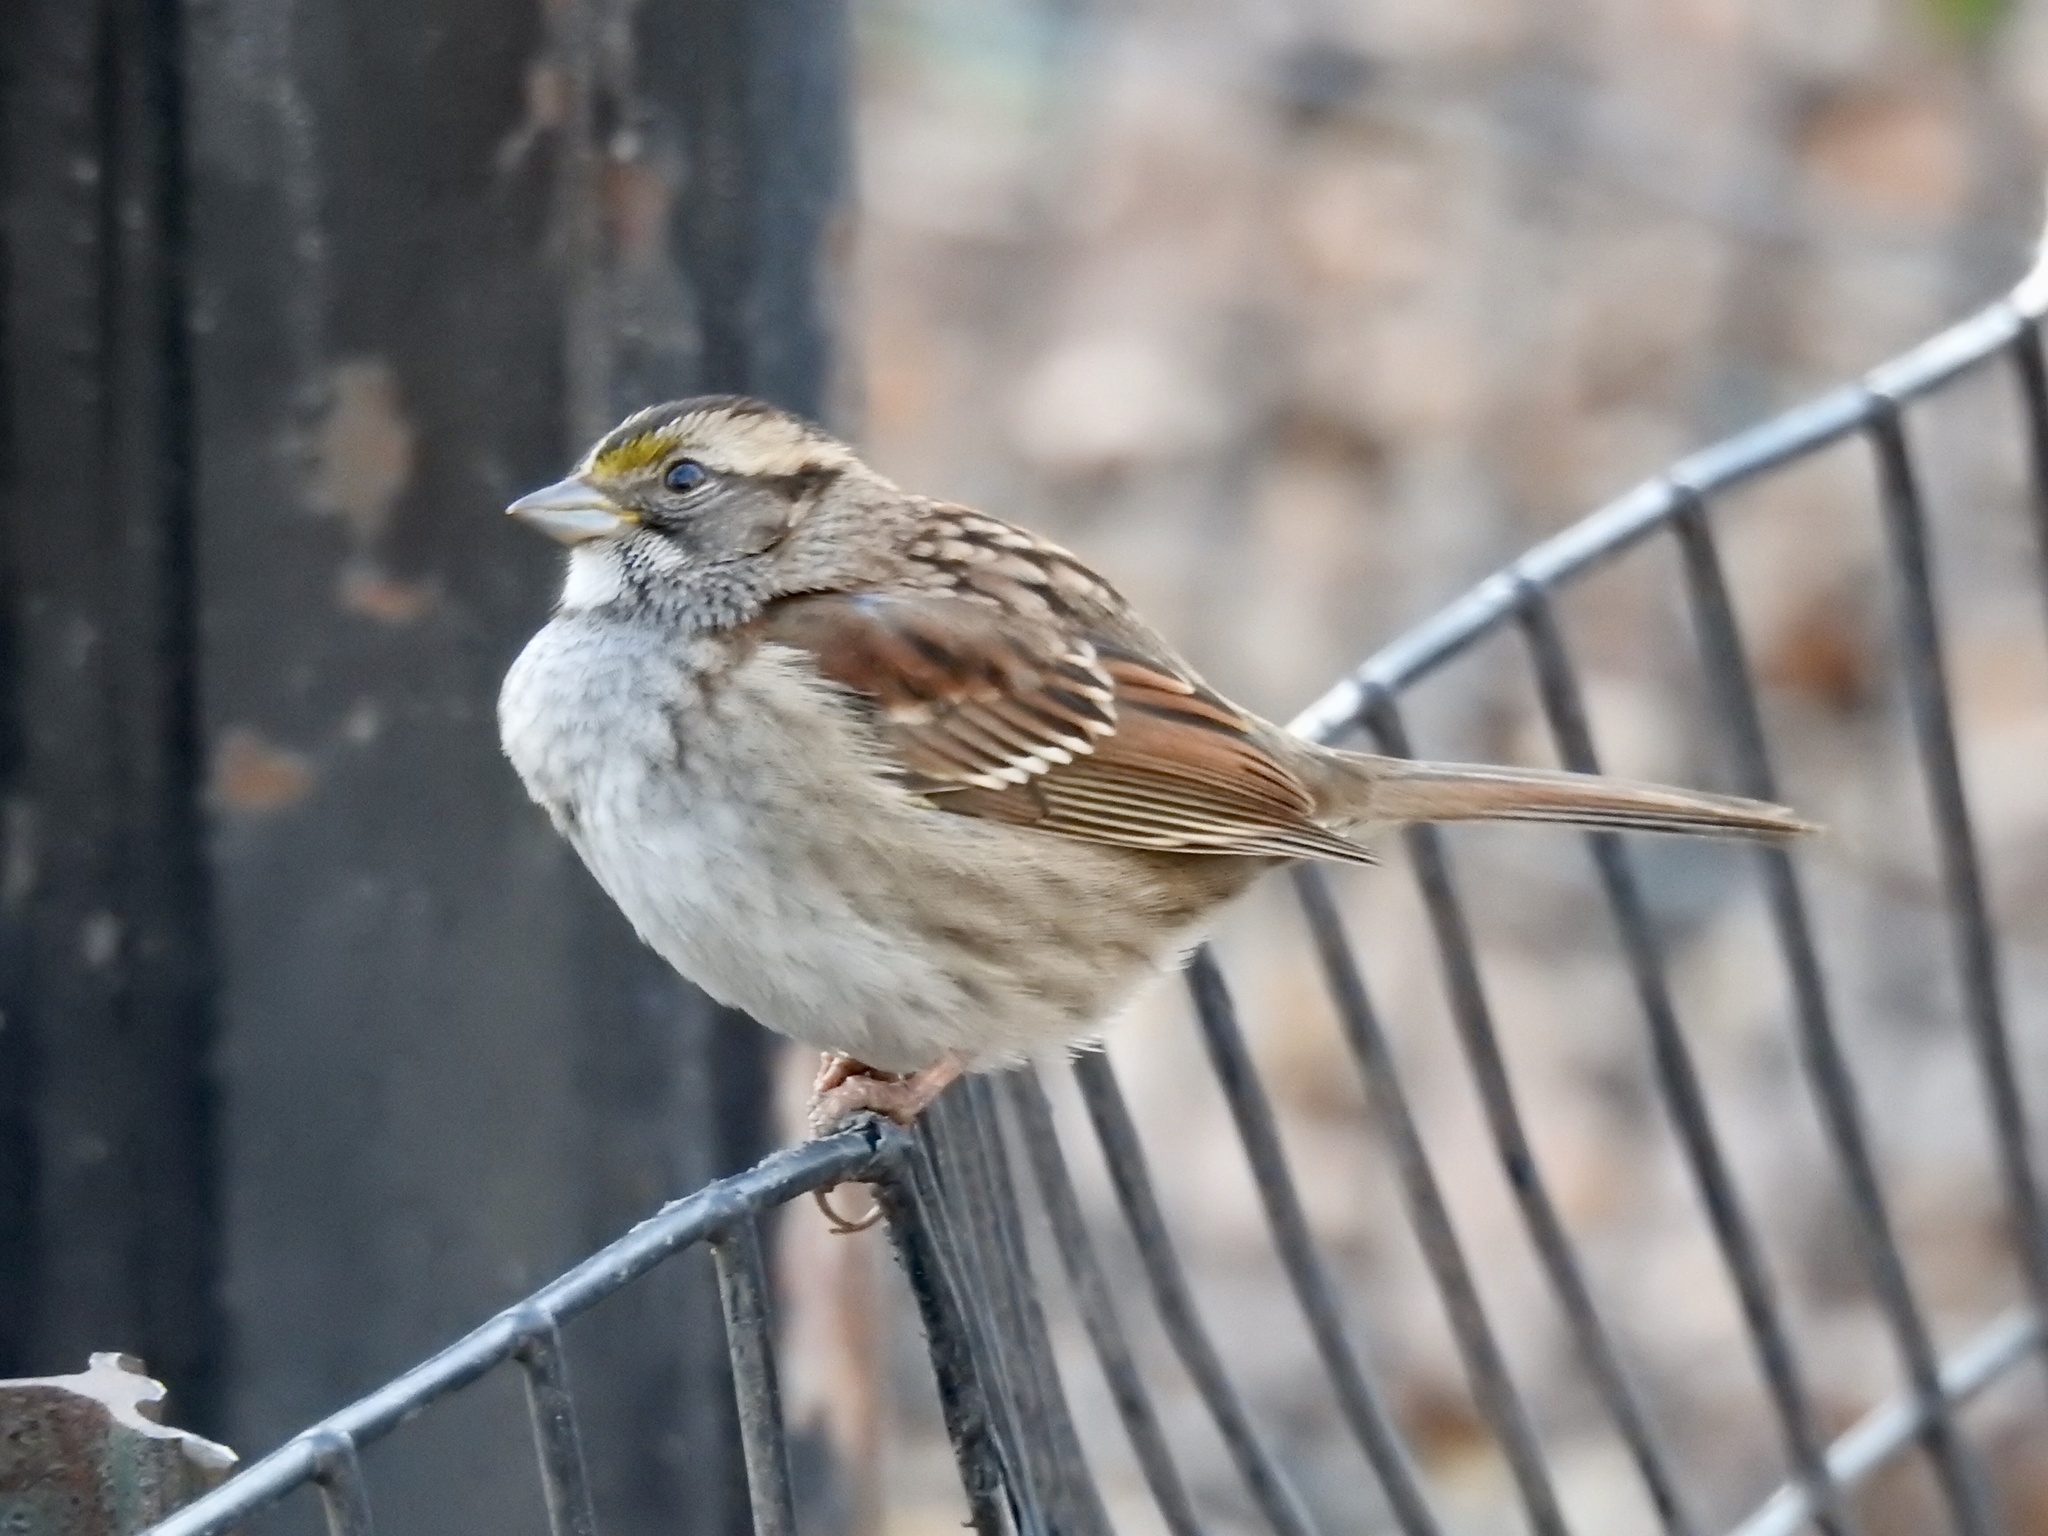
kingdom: Animalia
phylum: Chordata
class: Aves
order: Passeriformes
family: Passerellidae
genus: Zonotrichia
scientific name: Zonotrichia albicollis
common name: White-throated sparrow
